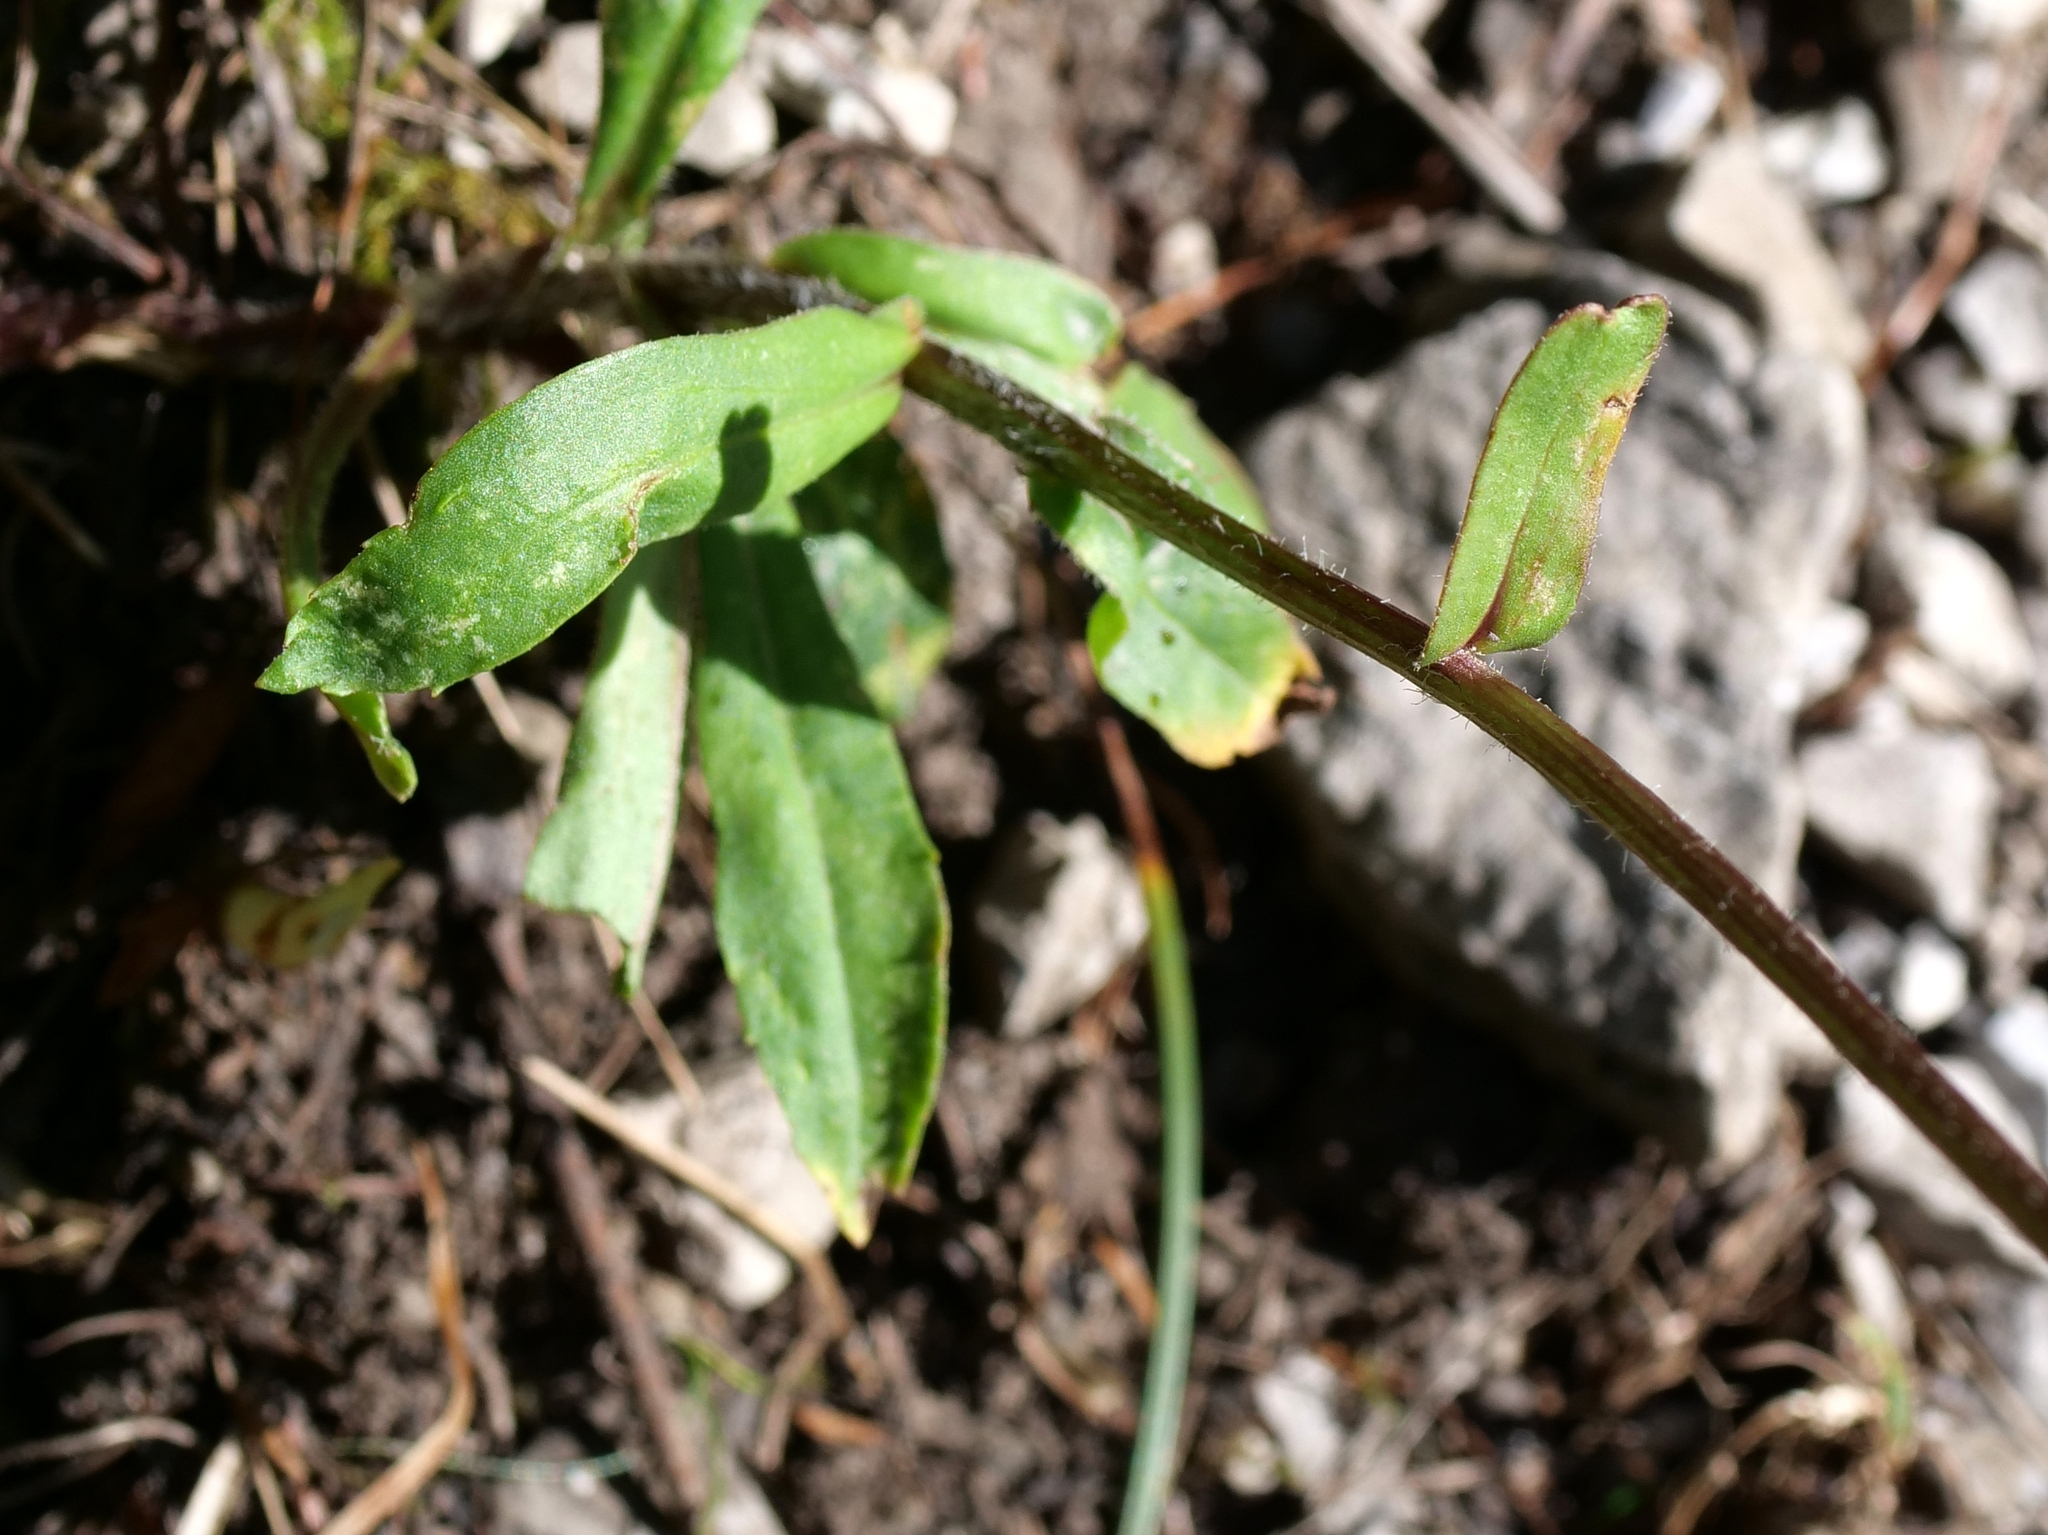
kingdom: Plantae
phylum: Tracheophyta
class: Magnoliopsida
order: Asterales
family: Asteraceae
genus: Leucanthemum
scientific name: Leucanthemum adustum
